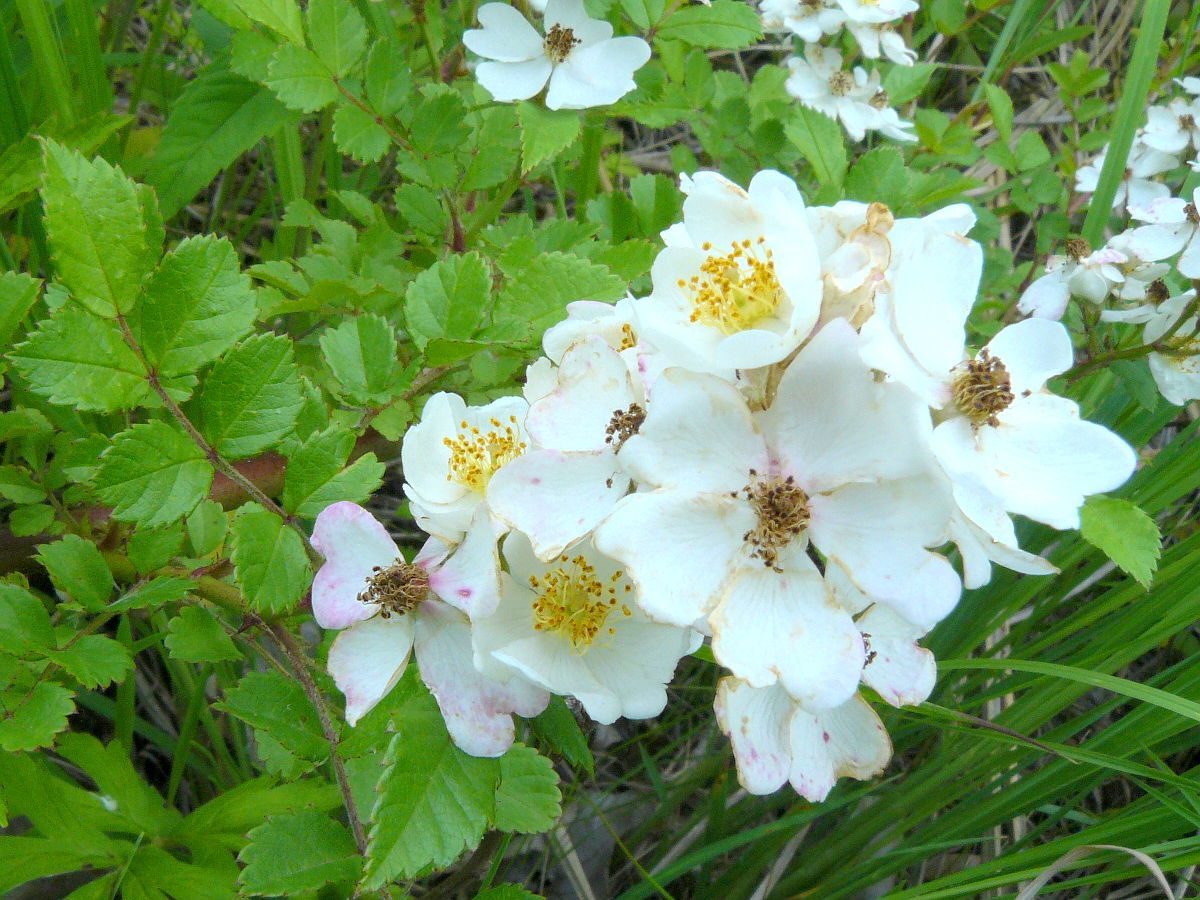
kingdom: Plantae
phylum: Tracheophyta
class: Magnoliopsida
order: Rosales
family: Rosaceae
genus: Rosa
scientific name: Rosa multiflora
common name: Multiflora rose
